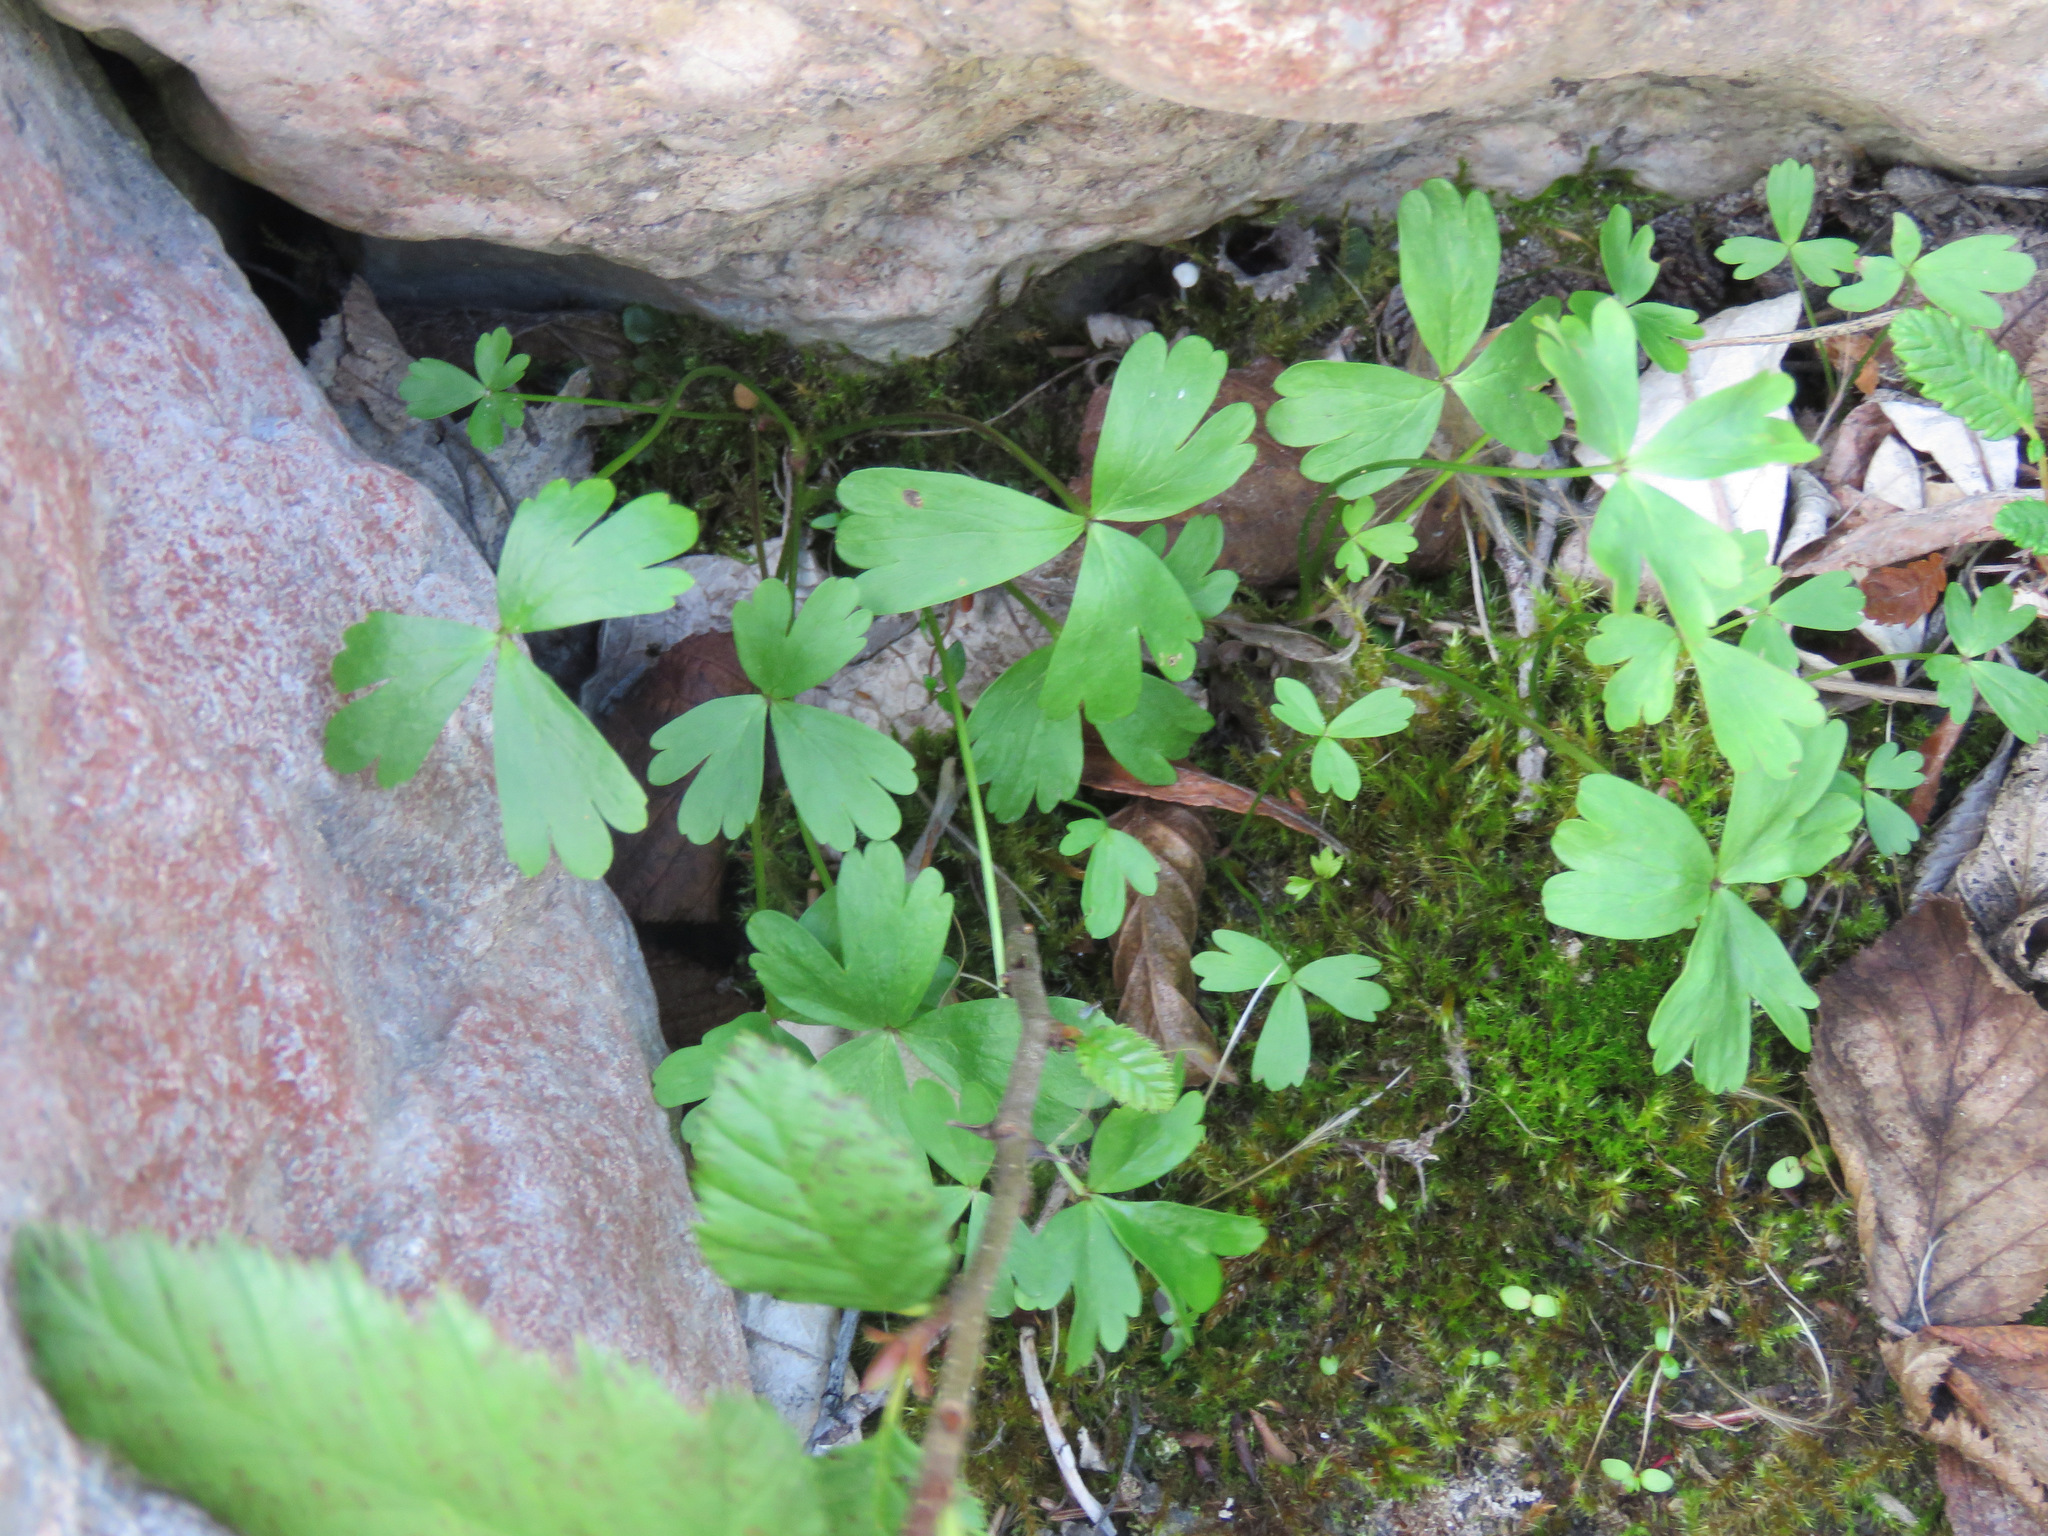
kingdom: Plantae
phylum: Tracheophyta
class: Magnoliopsida
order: Ranunculales
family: Ranunculaceae
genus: Anemone
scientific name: Anemone parviflora
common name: Northern anemone
